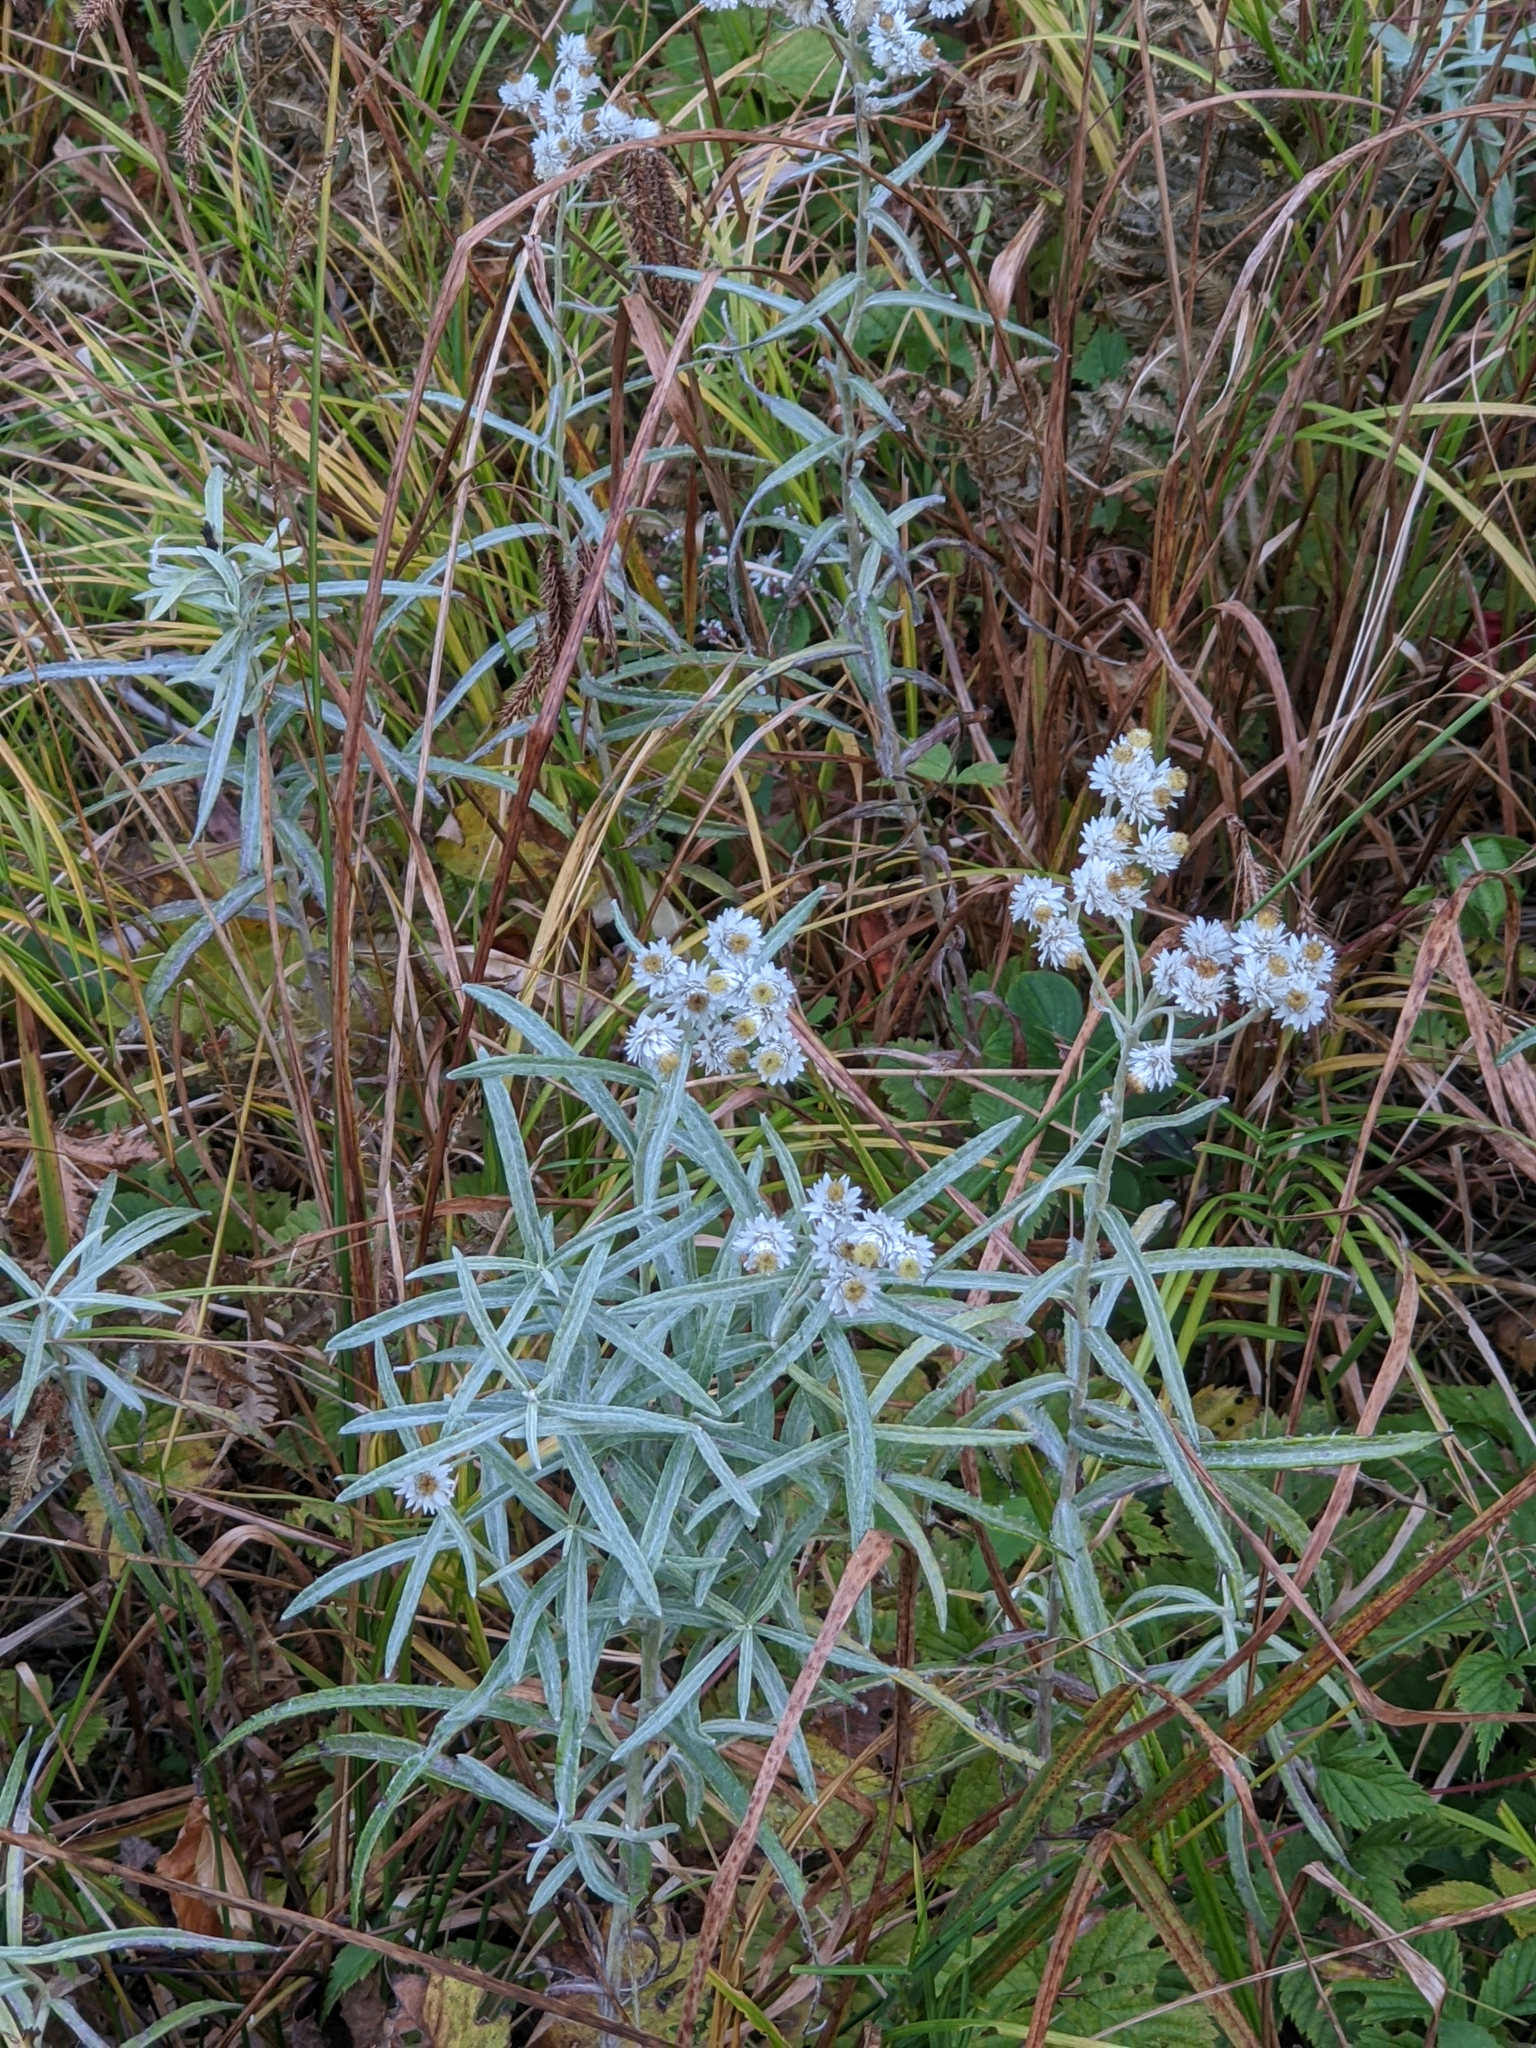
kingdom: Plantae
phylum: Tracheophyta
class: Magnoliopsida
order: Asterales
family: Asteraceae
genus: Anaphalis
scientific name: Anaphalis margaritacea
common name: Pearly everlasting
